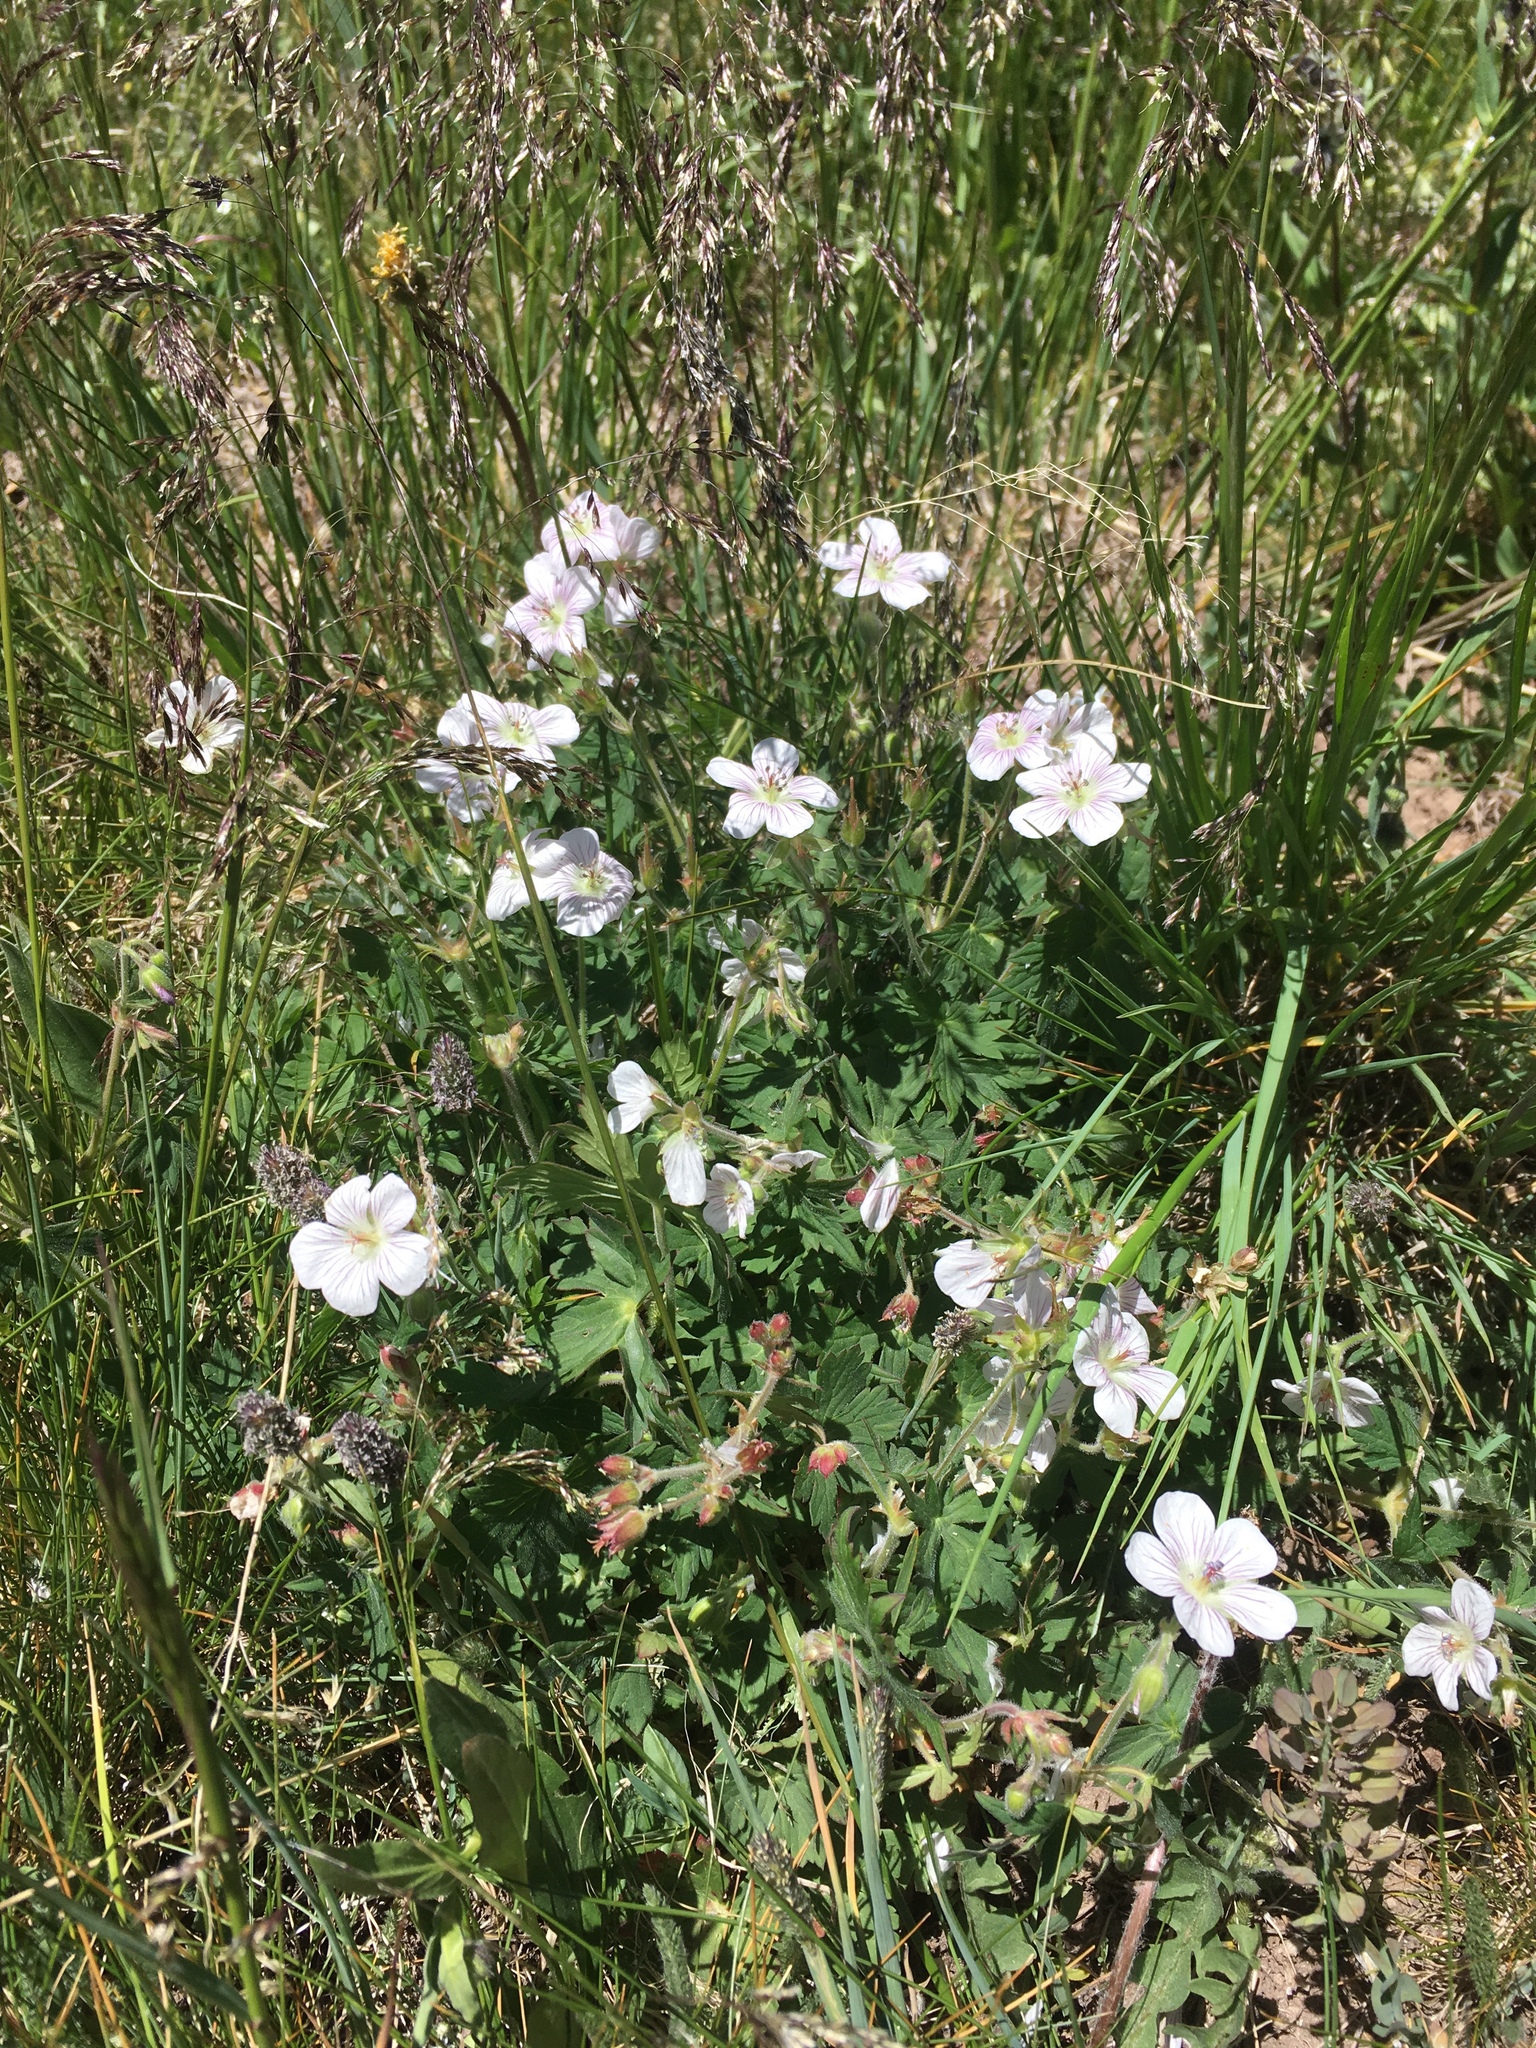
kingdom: Plantae
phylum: Tracheophyta
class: Magnoliopsida
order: Geraniales
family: Geraniaceae
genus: Geranium
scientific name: Geranium richardsonii
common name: Richardson's crane's-bill
